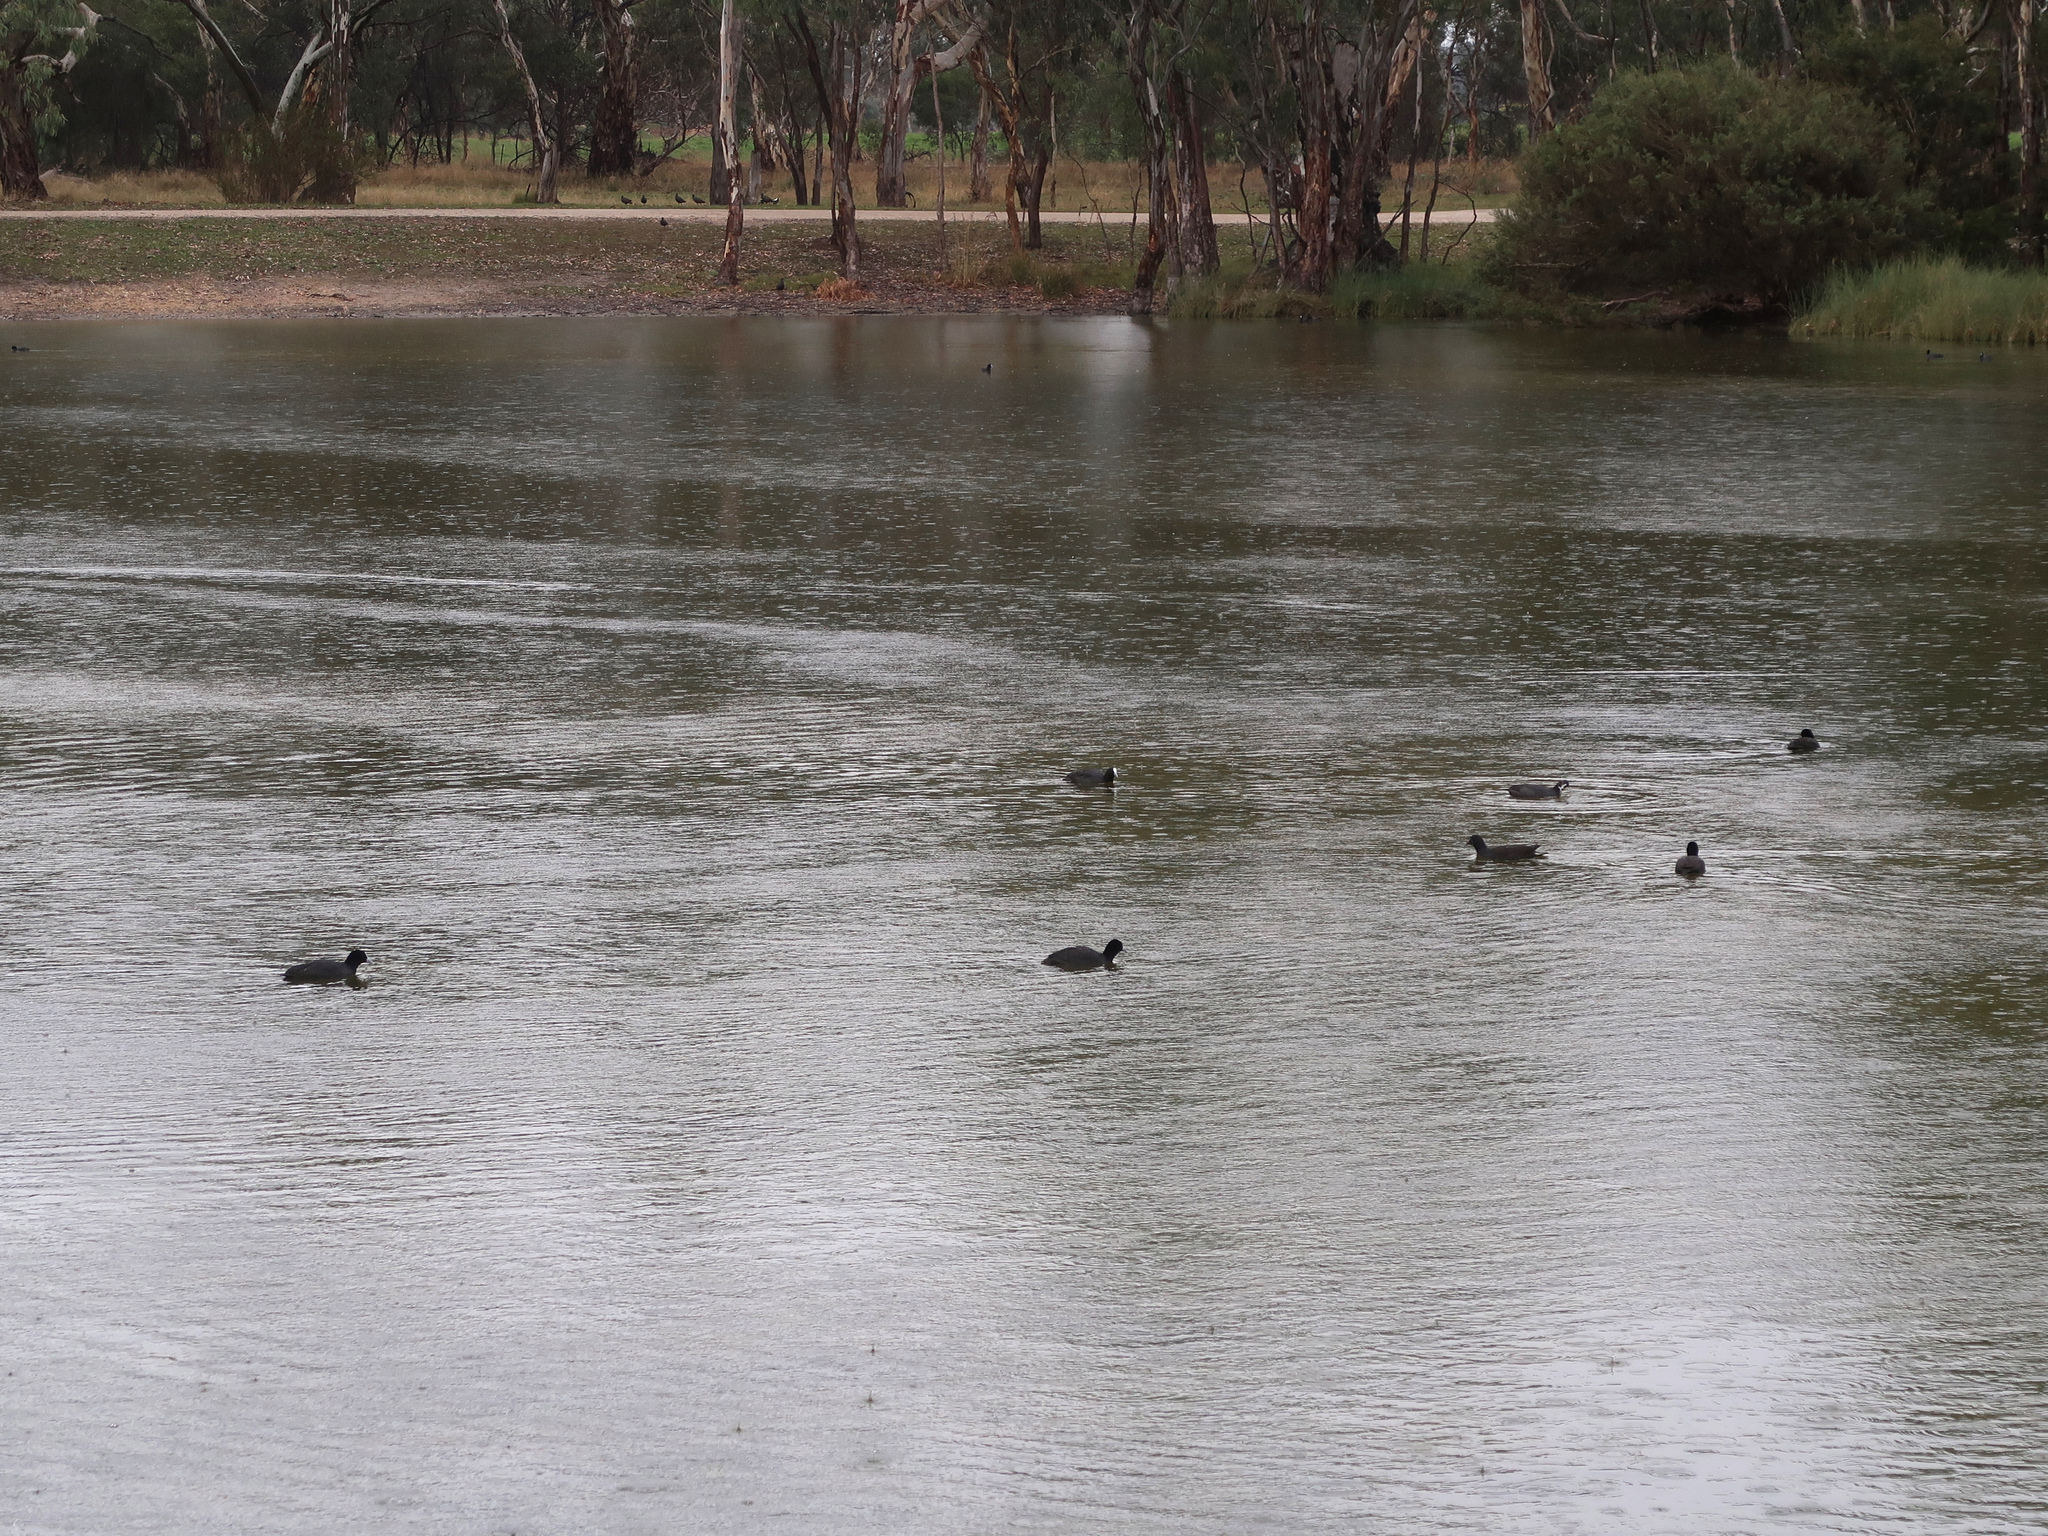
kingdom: Animalia
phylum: Chordata
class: Aves
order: Gruiformes
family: Rallidae
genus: Fulica
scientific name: Fulica atra
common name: Eurasian coot
